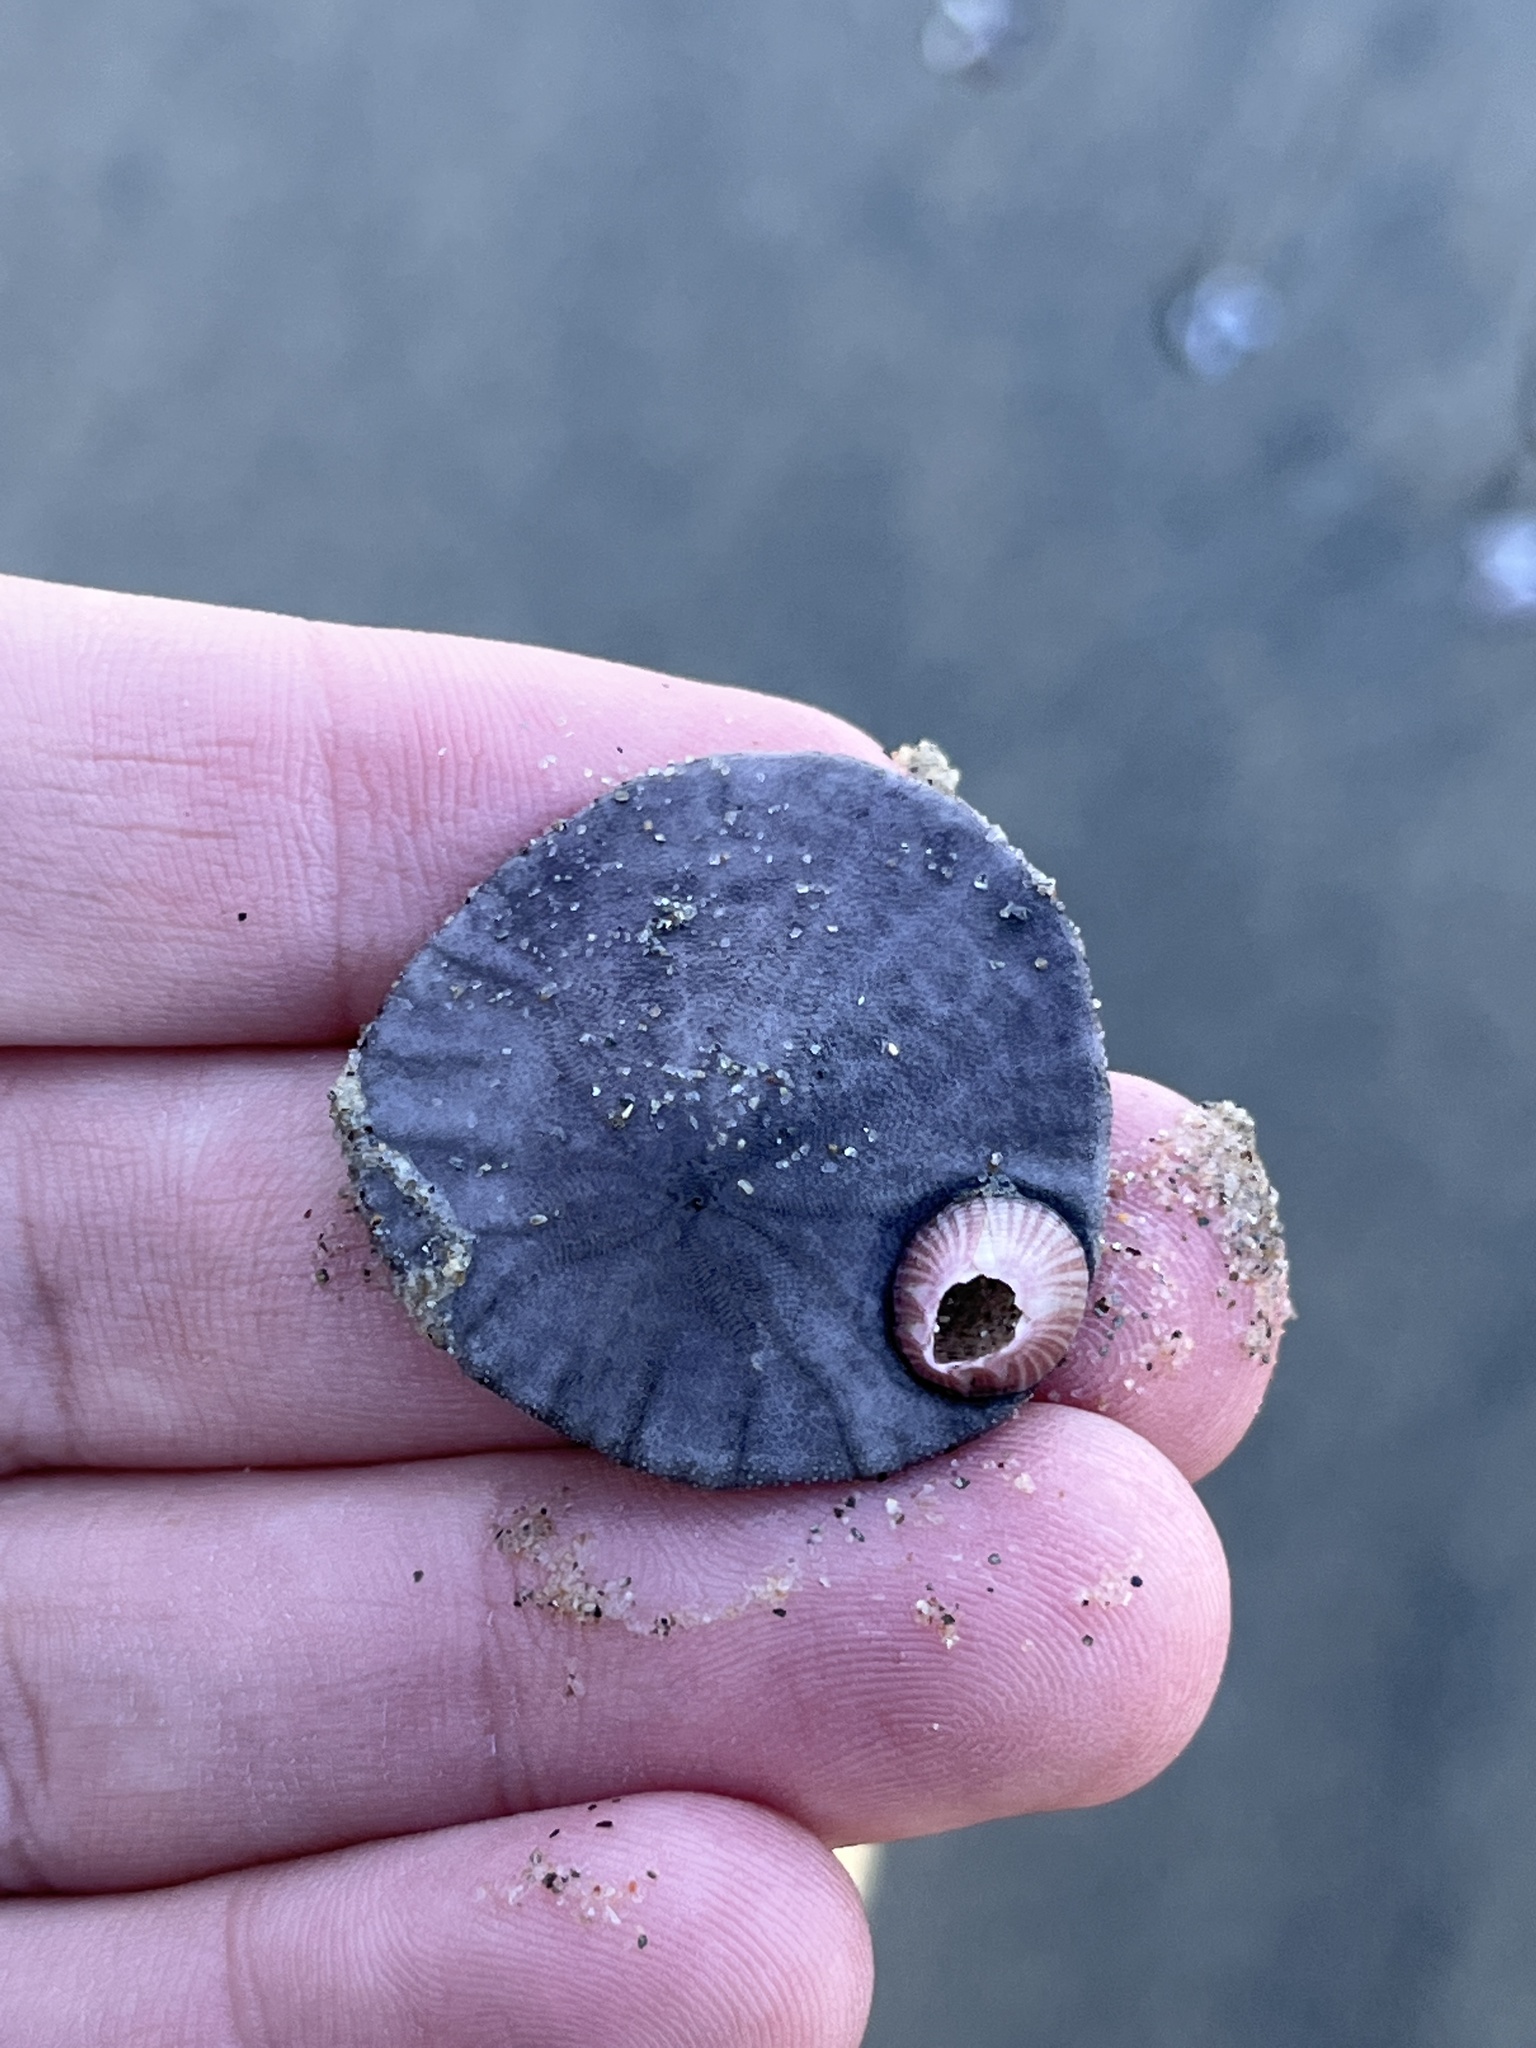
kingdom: Animalia
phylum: Echinodermata
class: Echinoidea
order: Echinolampadacea
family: Dendrasteridae
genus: Dendraster
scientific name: Dendraster excentricus
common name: Eccentric sand dollar sea urchin
